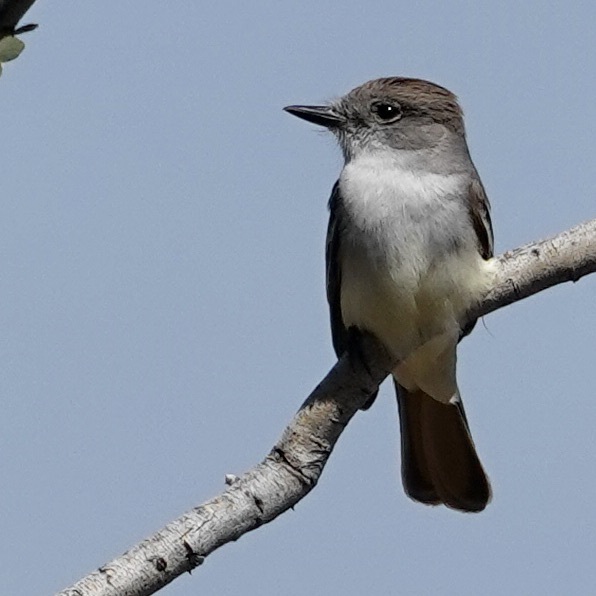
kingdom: Animalia
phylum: Chordata
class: Aves
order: Passeriformes
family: Tyrannidae
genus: Myiarchus
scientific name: Myiarchus cinerascens
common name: Ash-throated flycatcher
